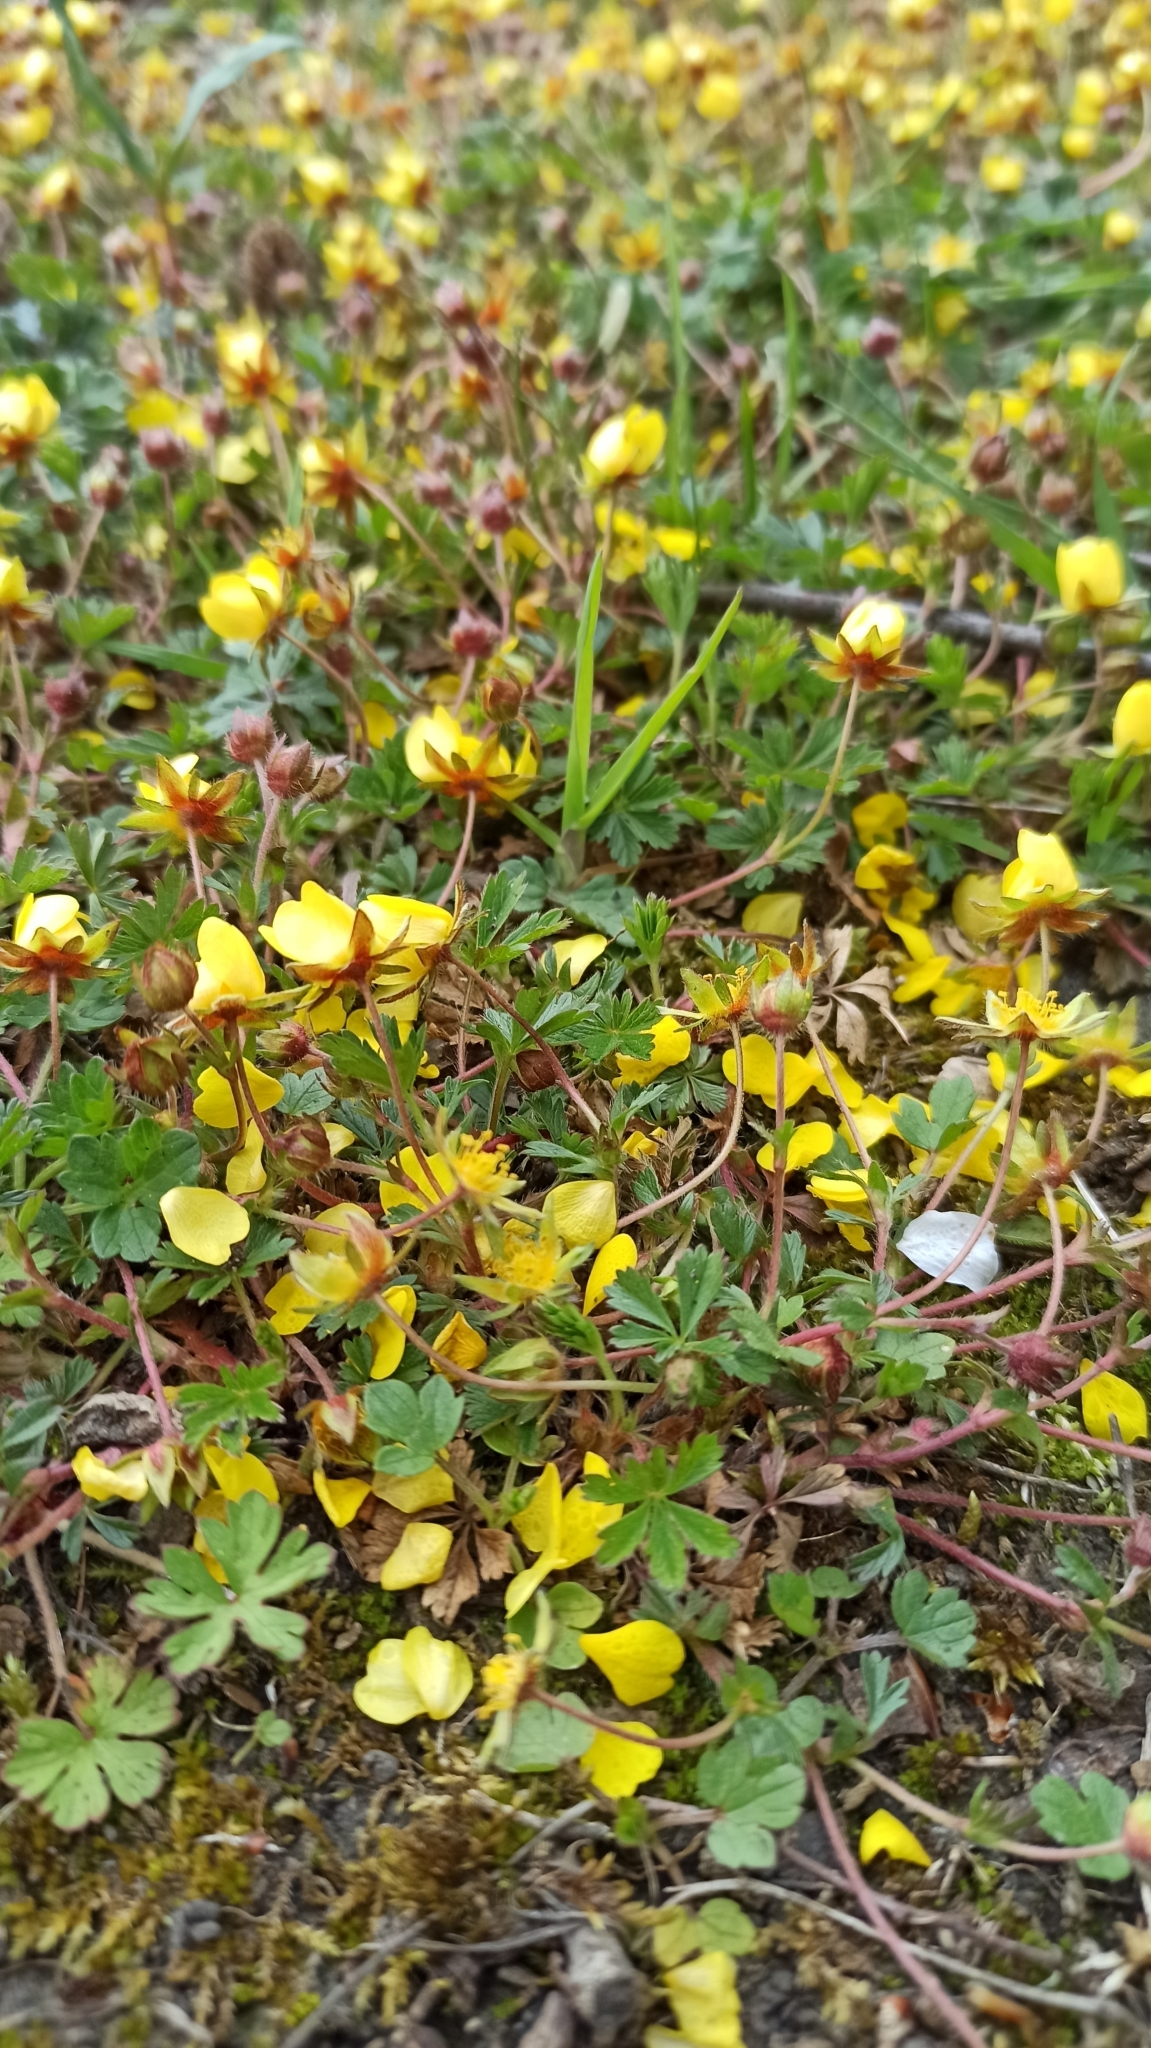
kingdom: Plantae
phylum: Tracheophyta
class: Magnoliopsida
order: Rosales
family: Rosaceae
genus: Potentilla
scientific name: Potentilla verna
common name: Spring cinquefoil
